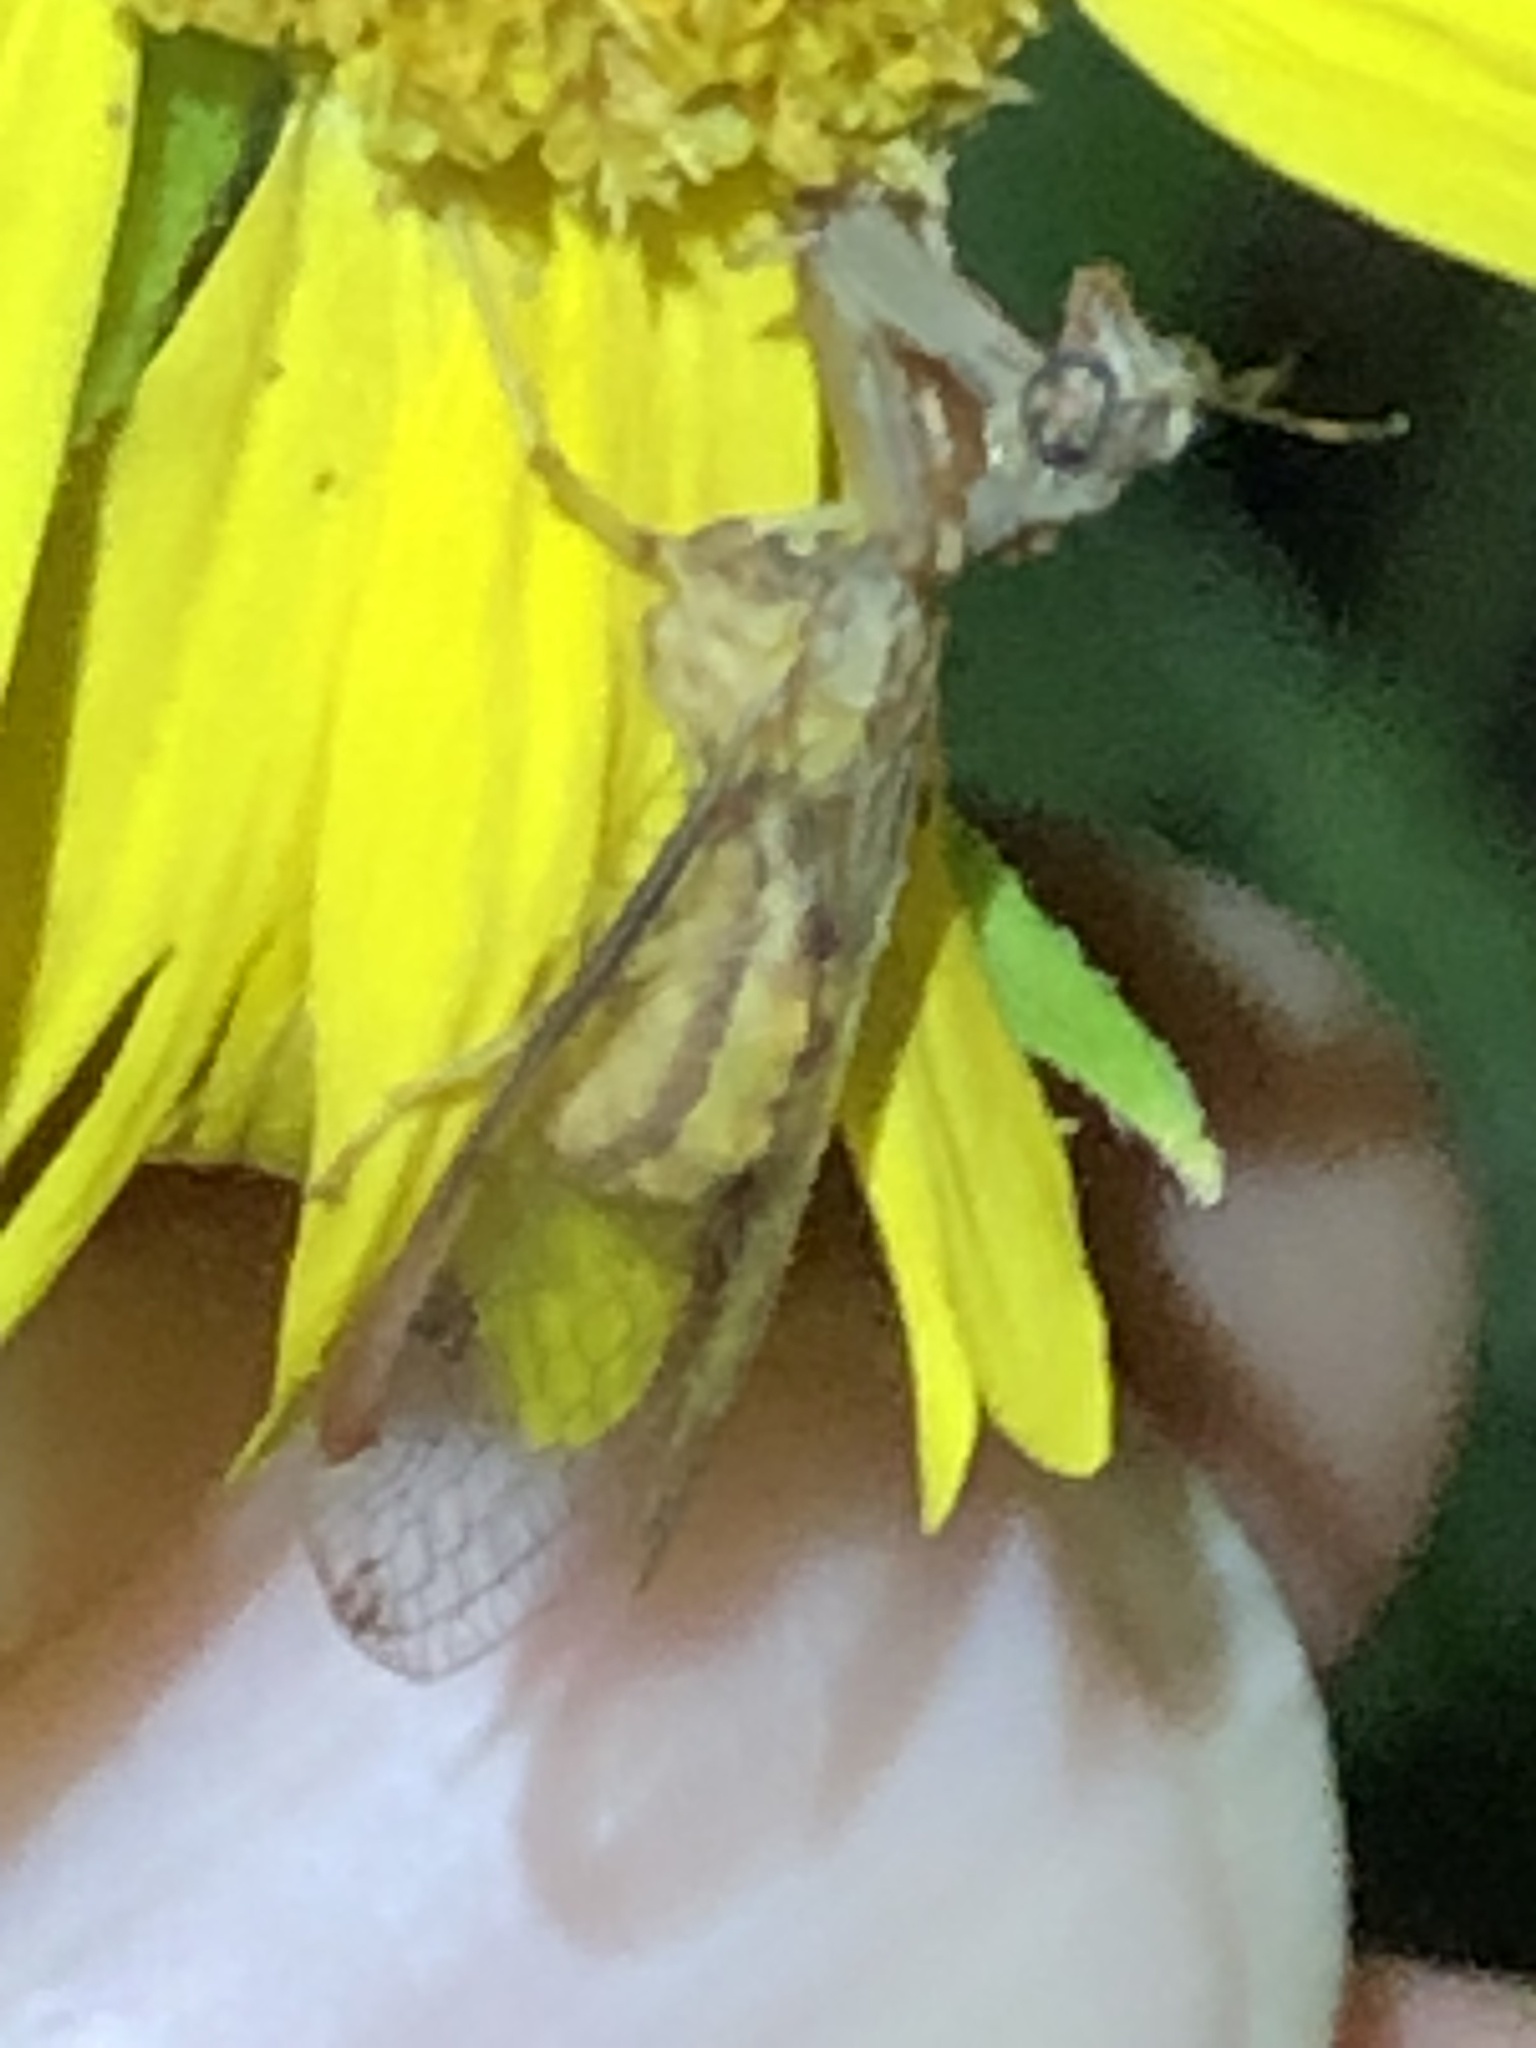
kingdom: Animalia
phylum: Arthropoda
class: Insecta
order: Neuroptera
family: Mantispidae
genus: Dicromantispa
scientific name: Dicromantispa interrupta
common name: Four-spotted mantidfly
